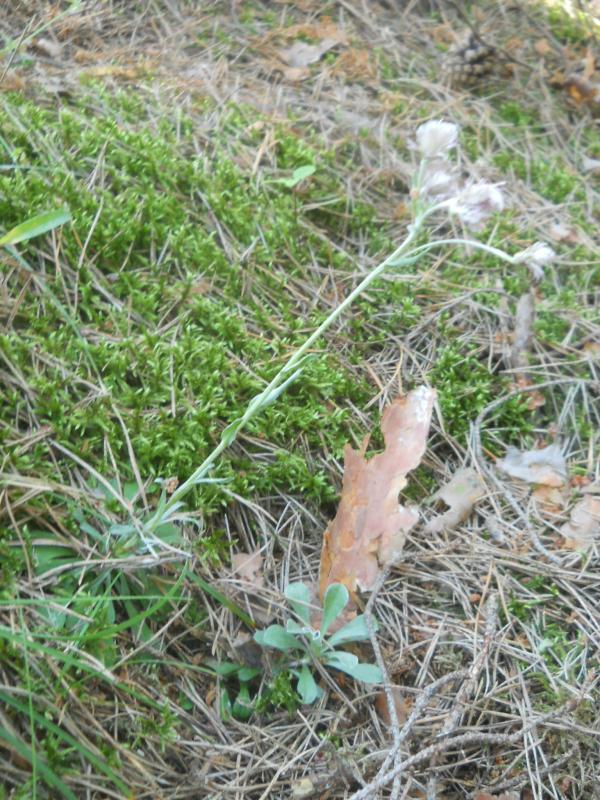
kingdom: Plantae
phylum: Tracheophyta
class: Magnoliopsida
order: Asterales
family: Asteraceae
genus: Antennaria
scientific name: Antennaria dioica
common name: Mountain everlasting
